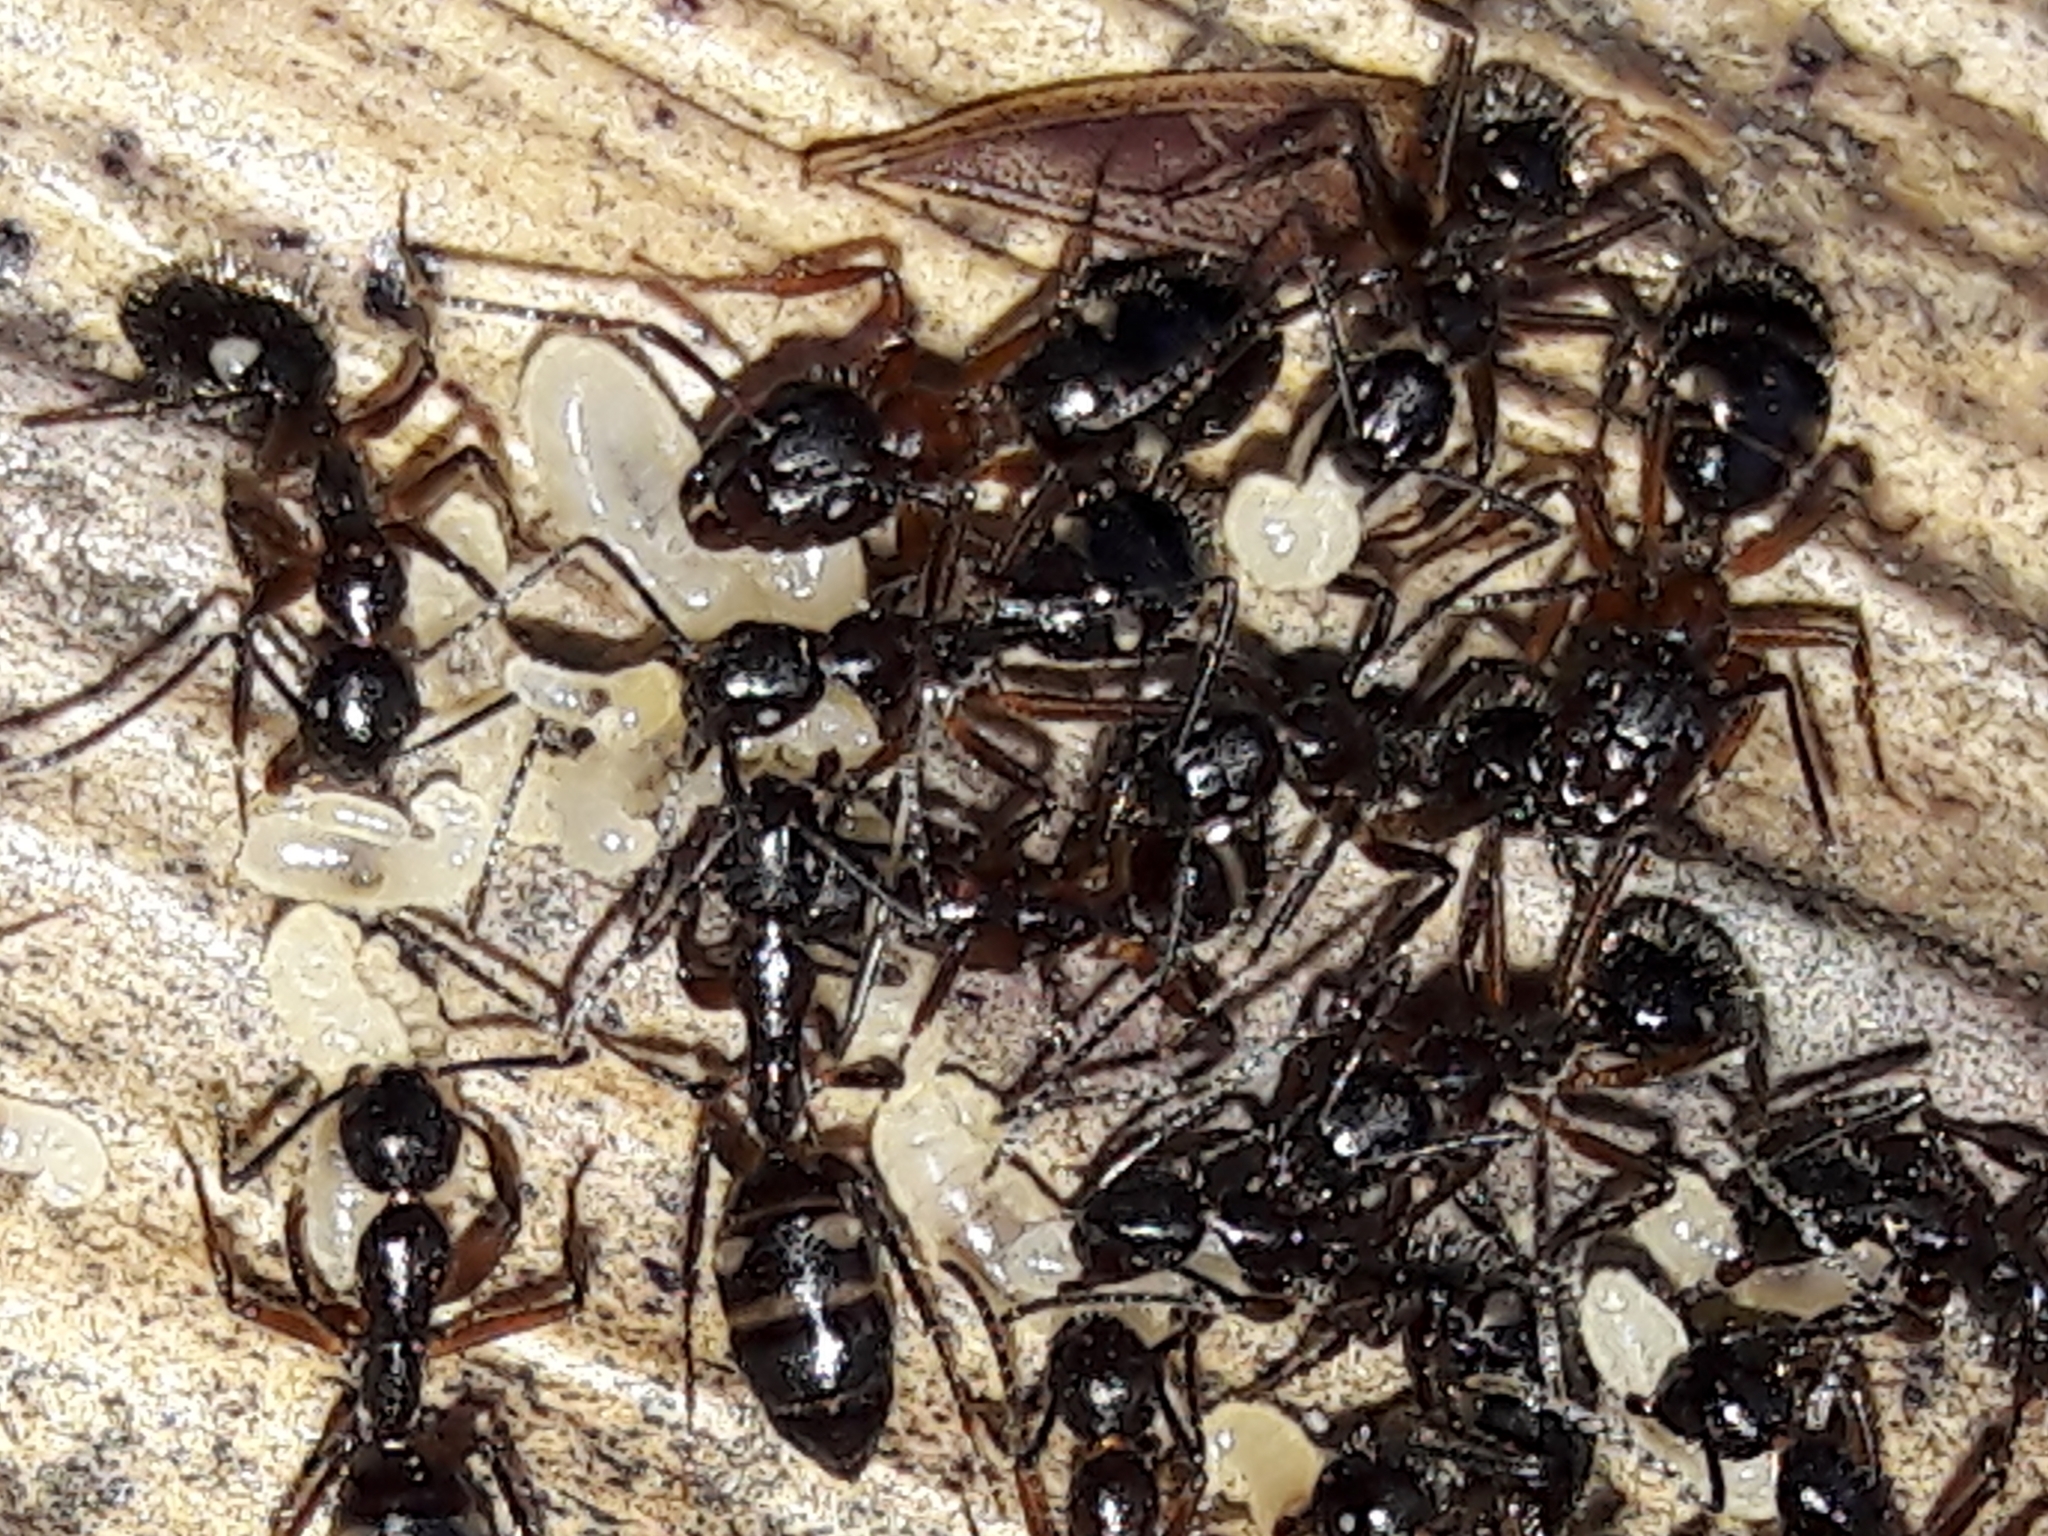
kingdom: Animalia
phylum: Arthropoda
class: Insecta
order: Hymenoptera
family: Formicidae
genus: Camponotus
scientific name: Camponotus sexguttatus
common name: Neotropical carpenter ant
